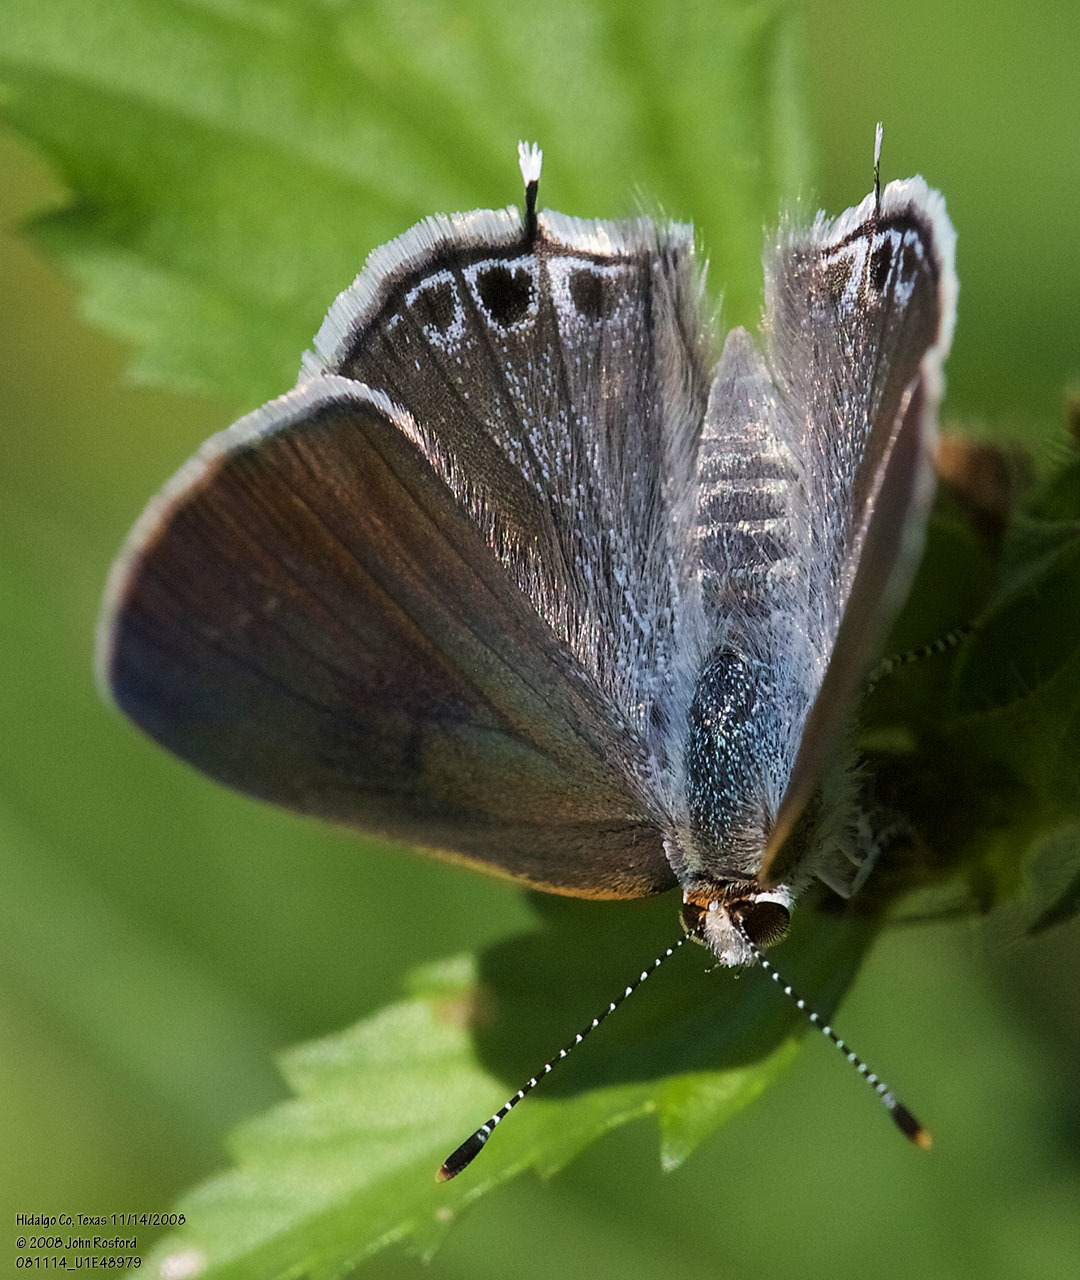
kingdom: Animalia
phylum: Arthropoda
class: Insecta
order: Lepidoptera
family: Lycaenidae
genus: Callicista
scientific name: Callicista columella
